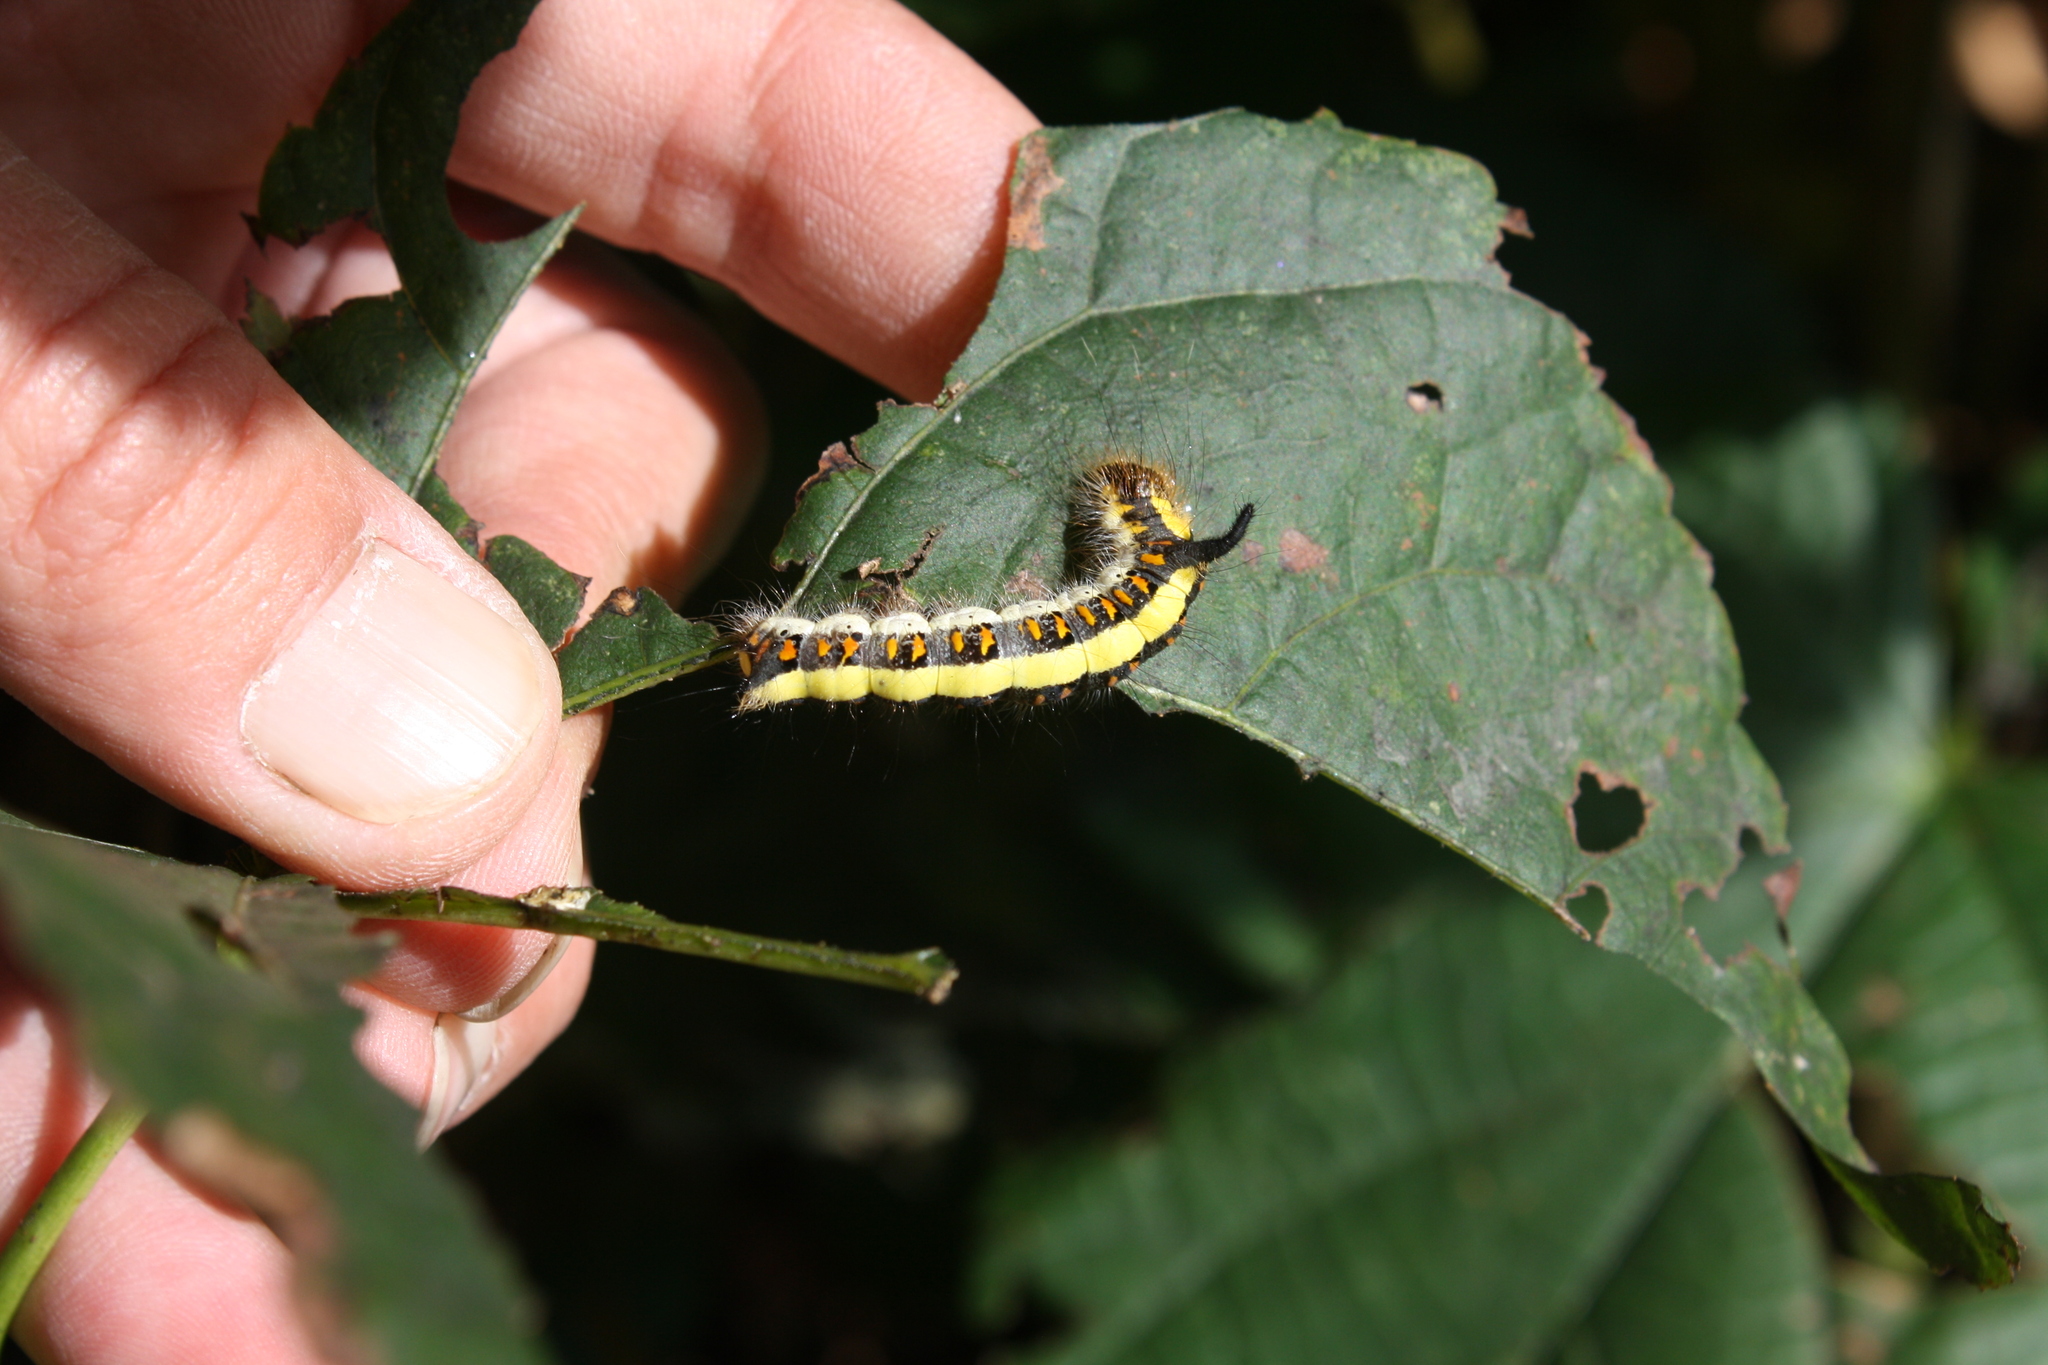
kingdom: Animalia
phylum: Arthropoda
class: Insecta
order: Lepidoptera
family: Noctuidae
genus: Acronicta
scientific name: Acronicta psi
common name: Grey dagger
